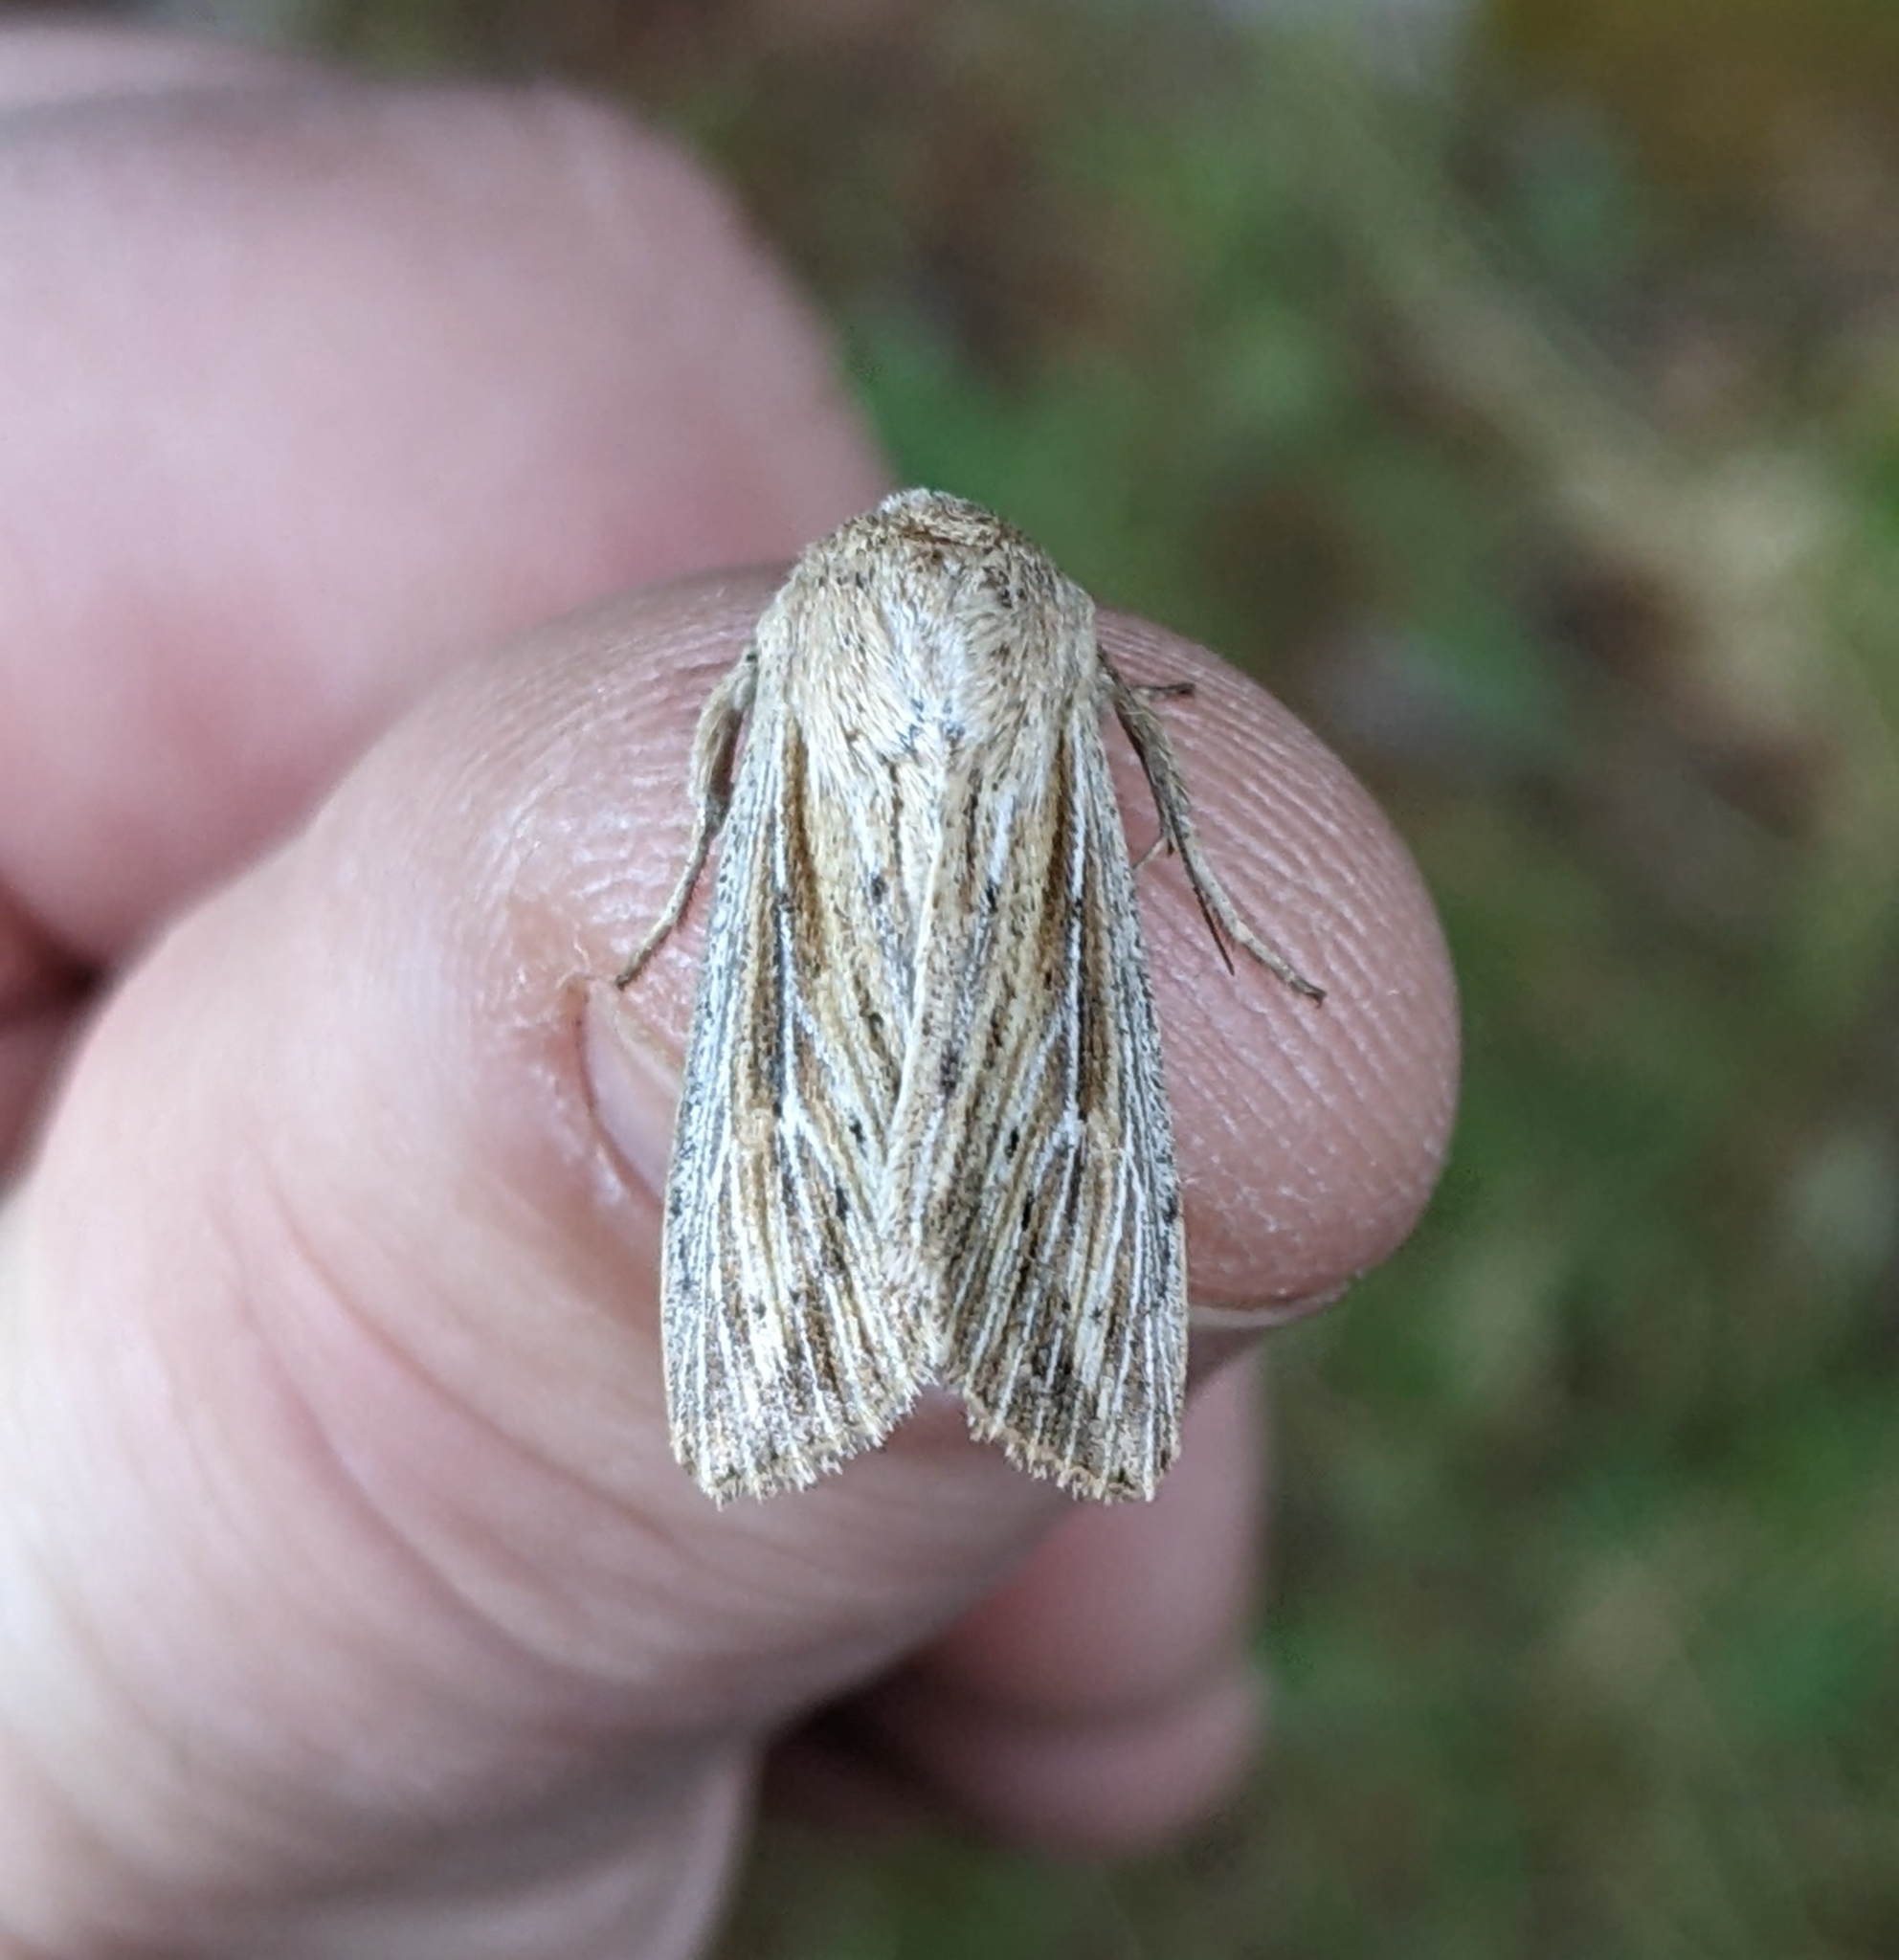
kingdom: Animalia
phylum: Arthropoda
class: Insecta
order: Lepidoptera
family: Noctuidae
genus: Leucania
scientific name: Leucania insueta
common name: Heterodox wainscot moth
